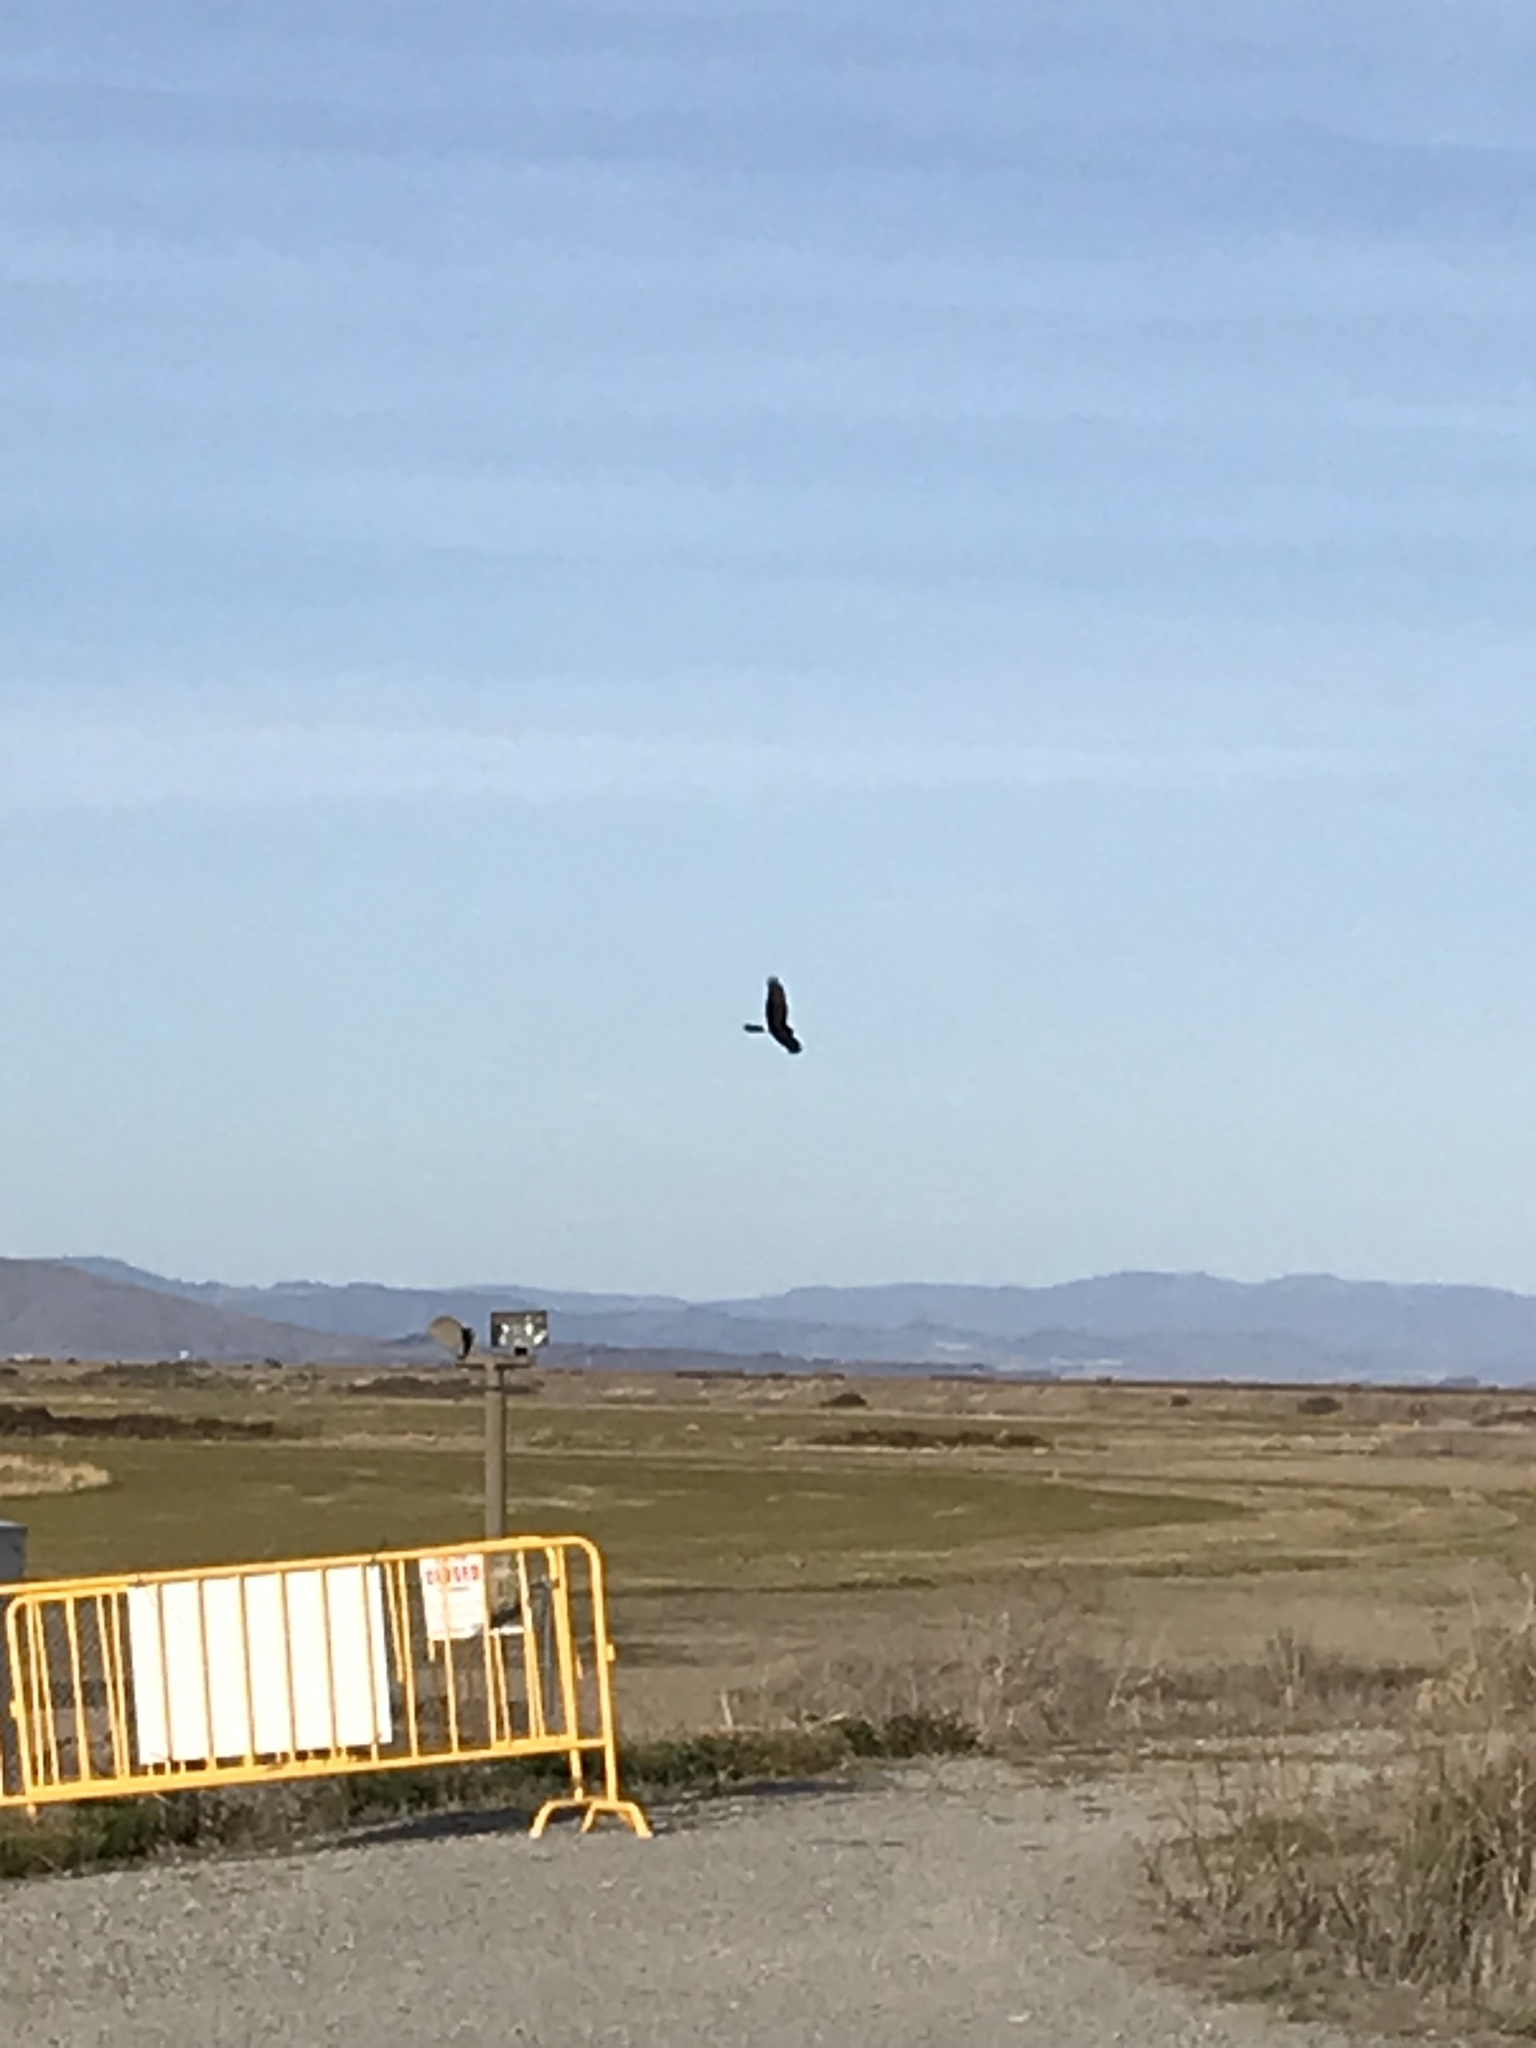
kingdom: Animalia
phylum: Chordata
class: Aves
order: Accipitriformes
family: Accipitridae
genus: Circus
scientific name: Circus cyaneus
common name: Hen harrier
